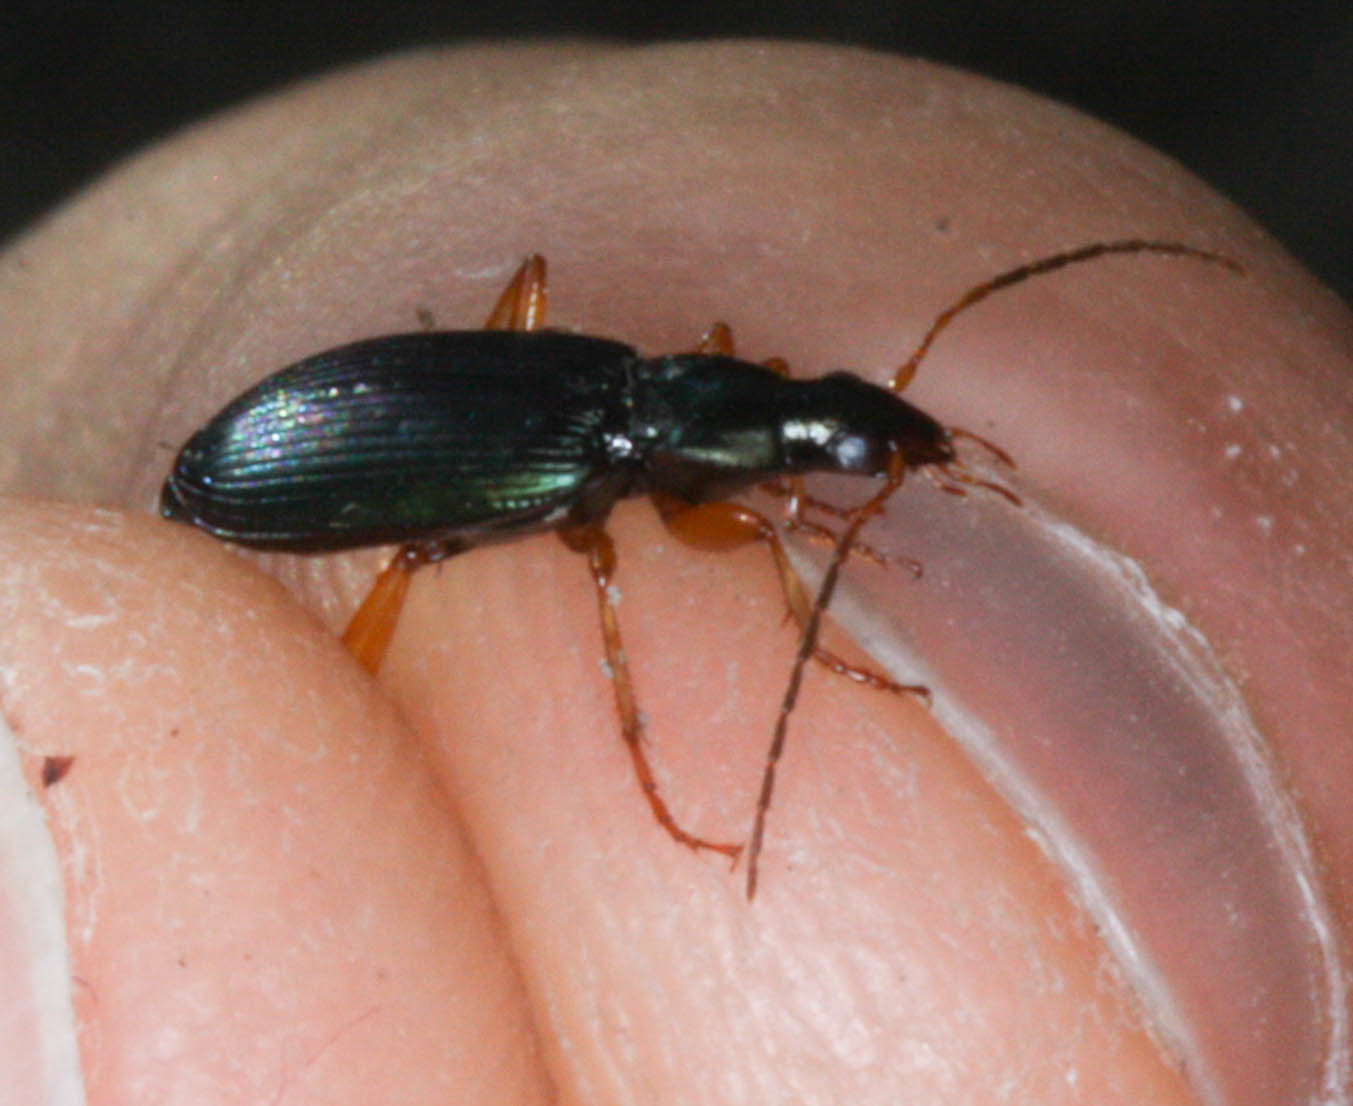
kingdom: Animalia
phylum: Arthropoda
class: Insecta
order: Coleoptera
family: Carabidae
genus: Agonum
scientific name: Agonum extensicolle
